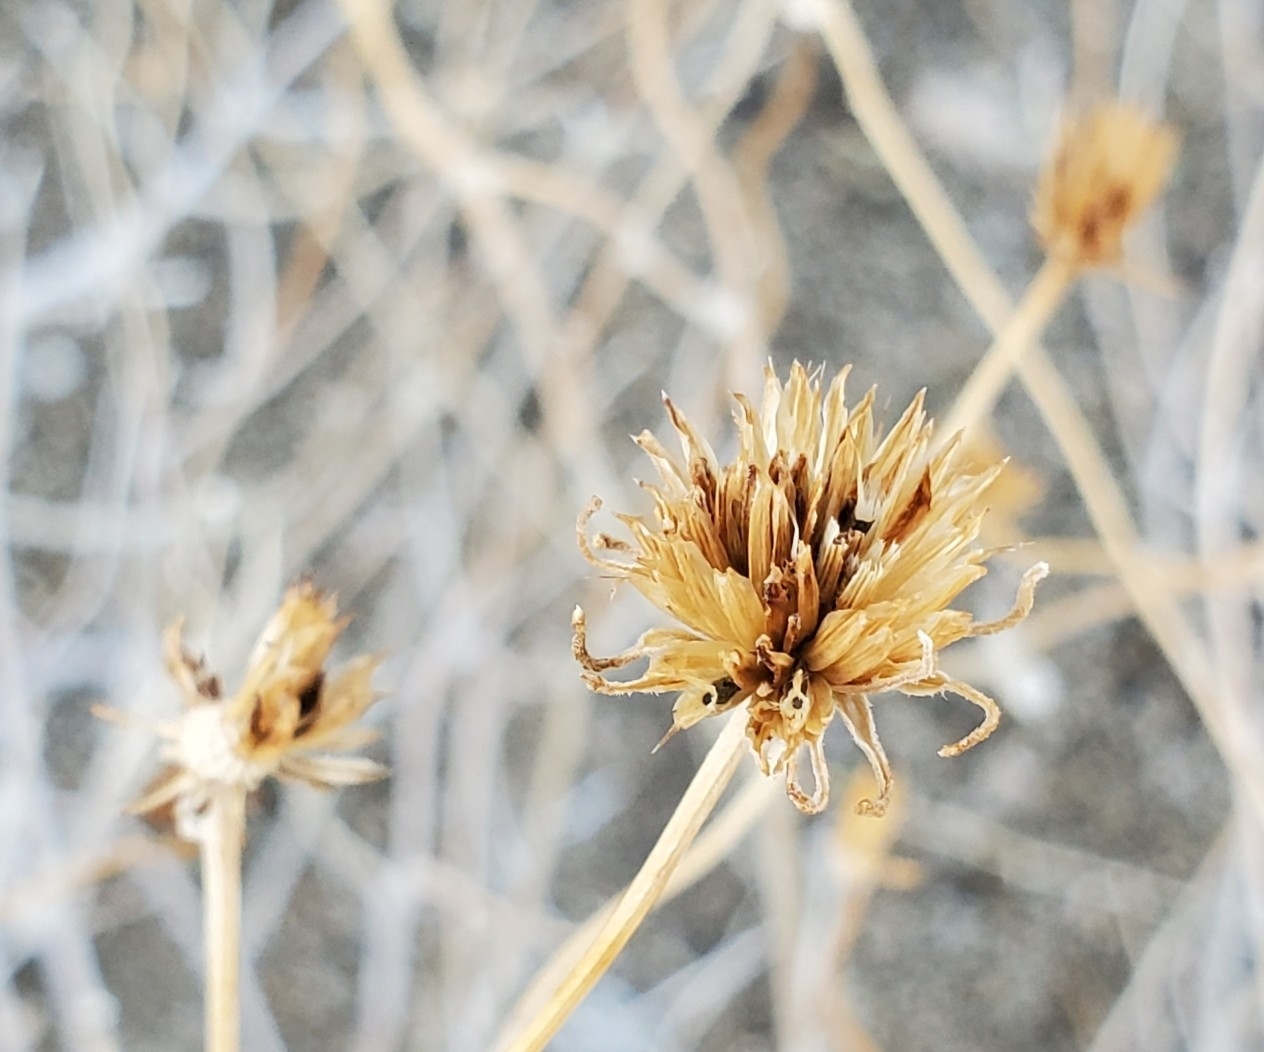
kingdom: Plantae
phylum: Tracheophyta
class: Magnoliopsida
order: Asterales
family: Asteraceae
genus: Bahiopsis
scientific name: Bahiopsis parishii
